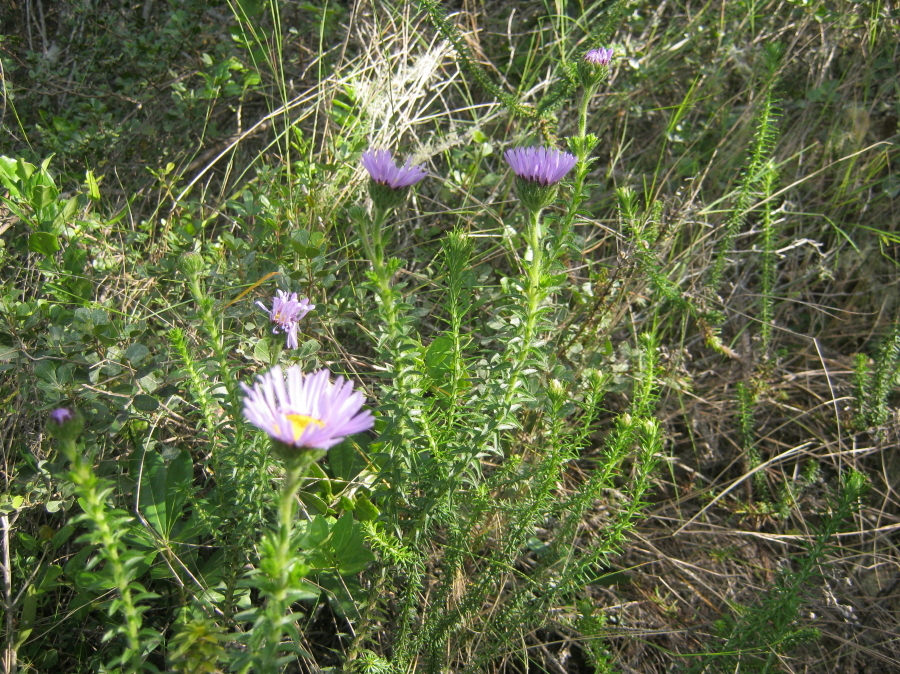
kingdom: Plantae
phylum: Tracheophyta
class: Magnoliopsida
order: Asterales
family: Asteraceae
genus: Felicia
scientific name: Felicia echinata
